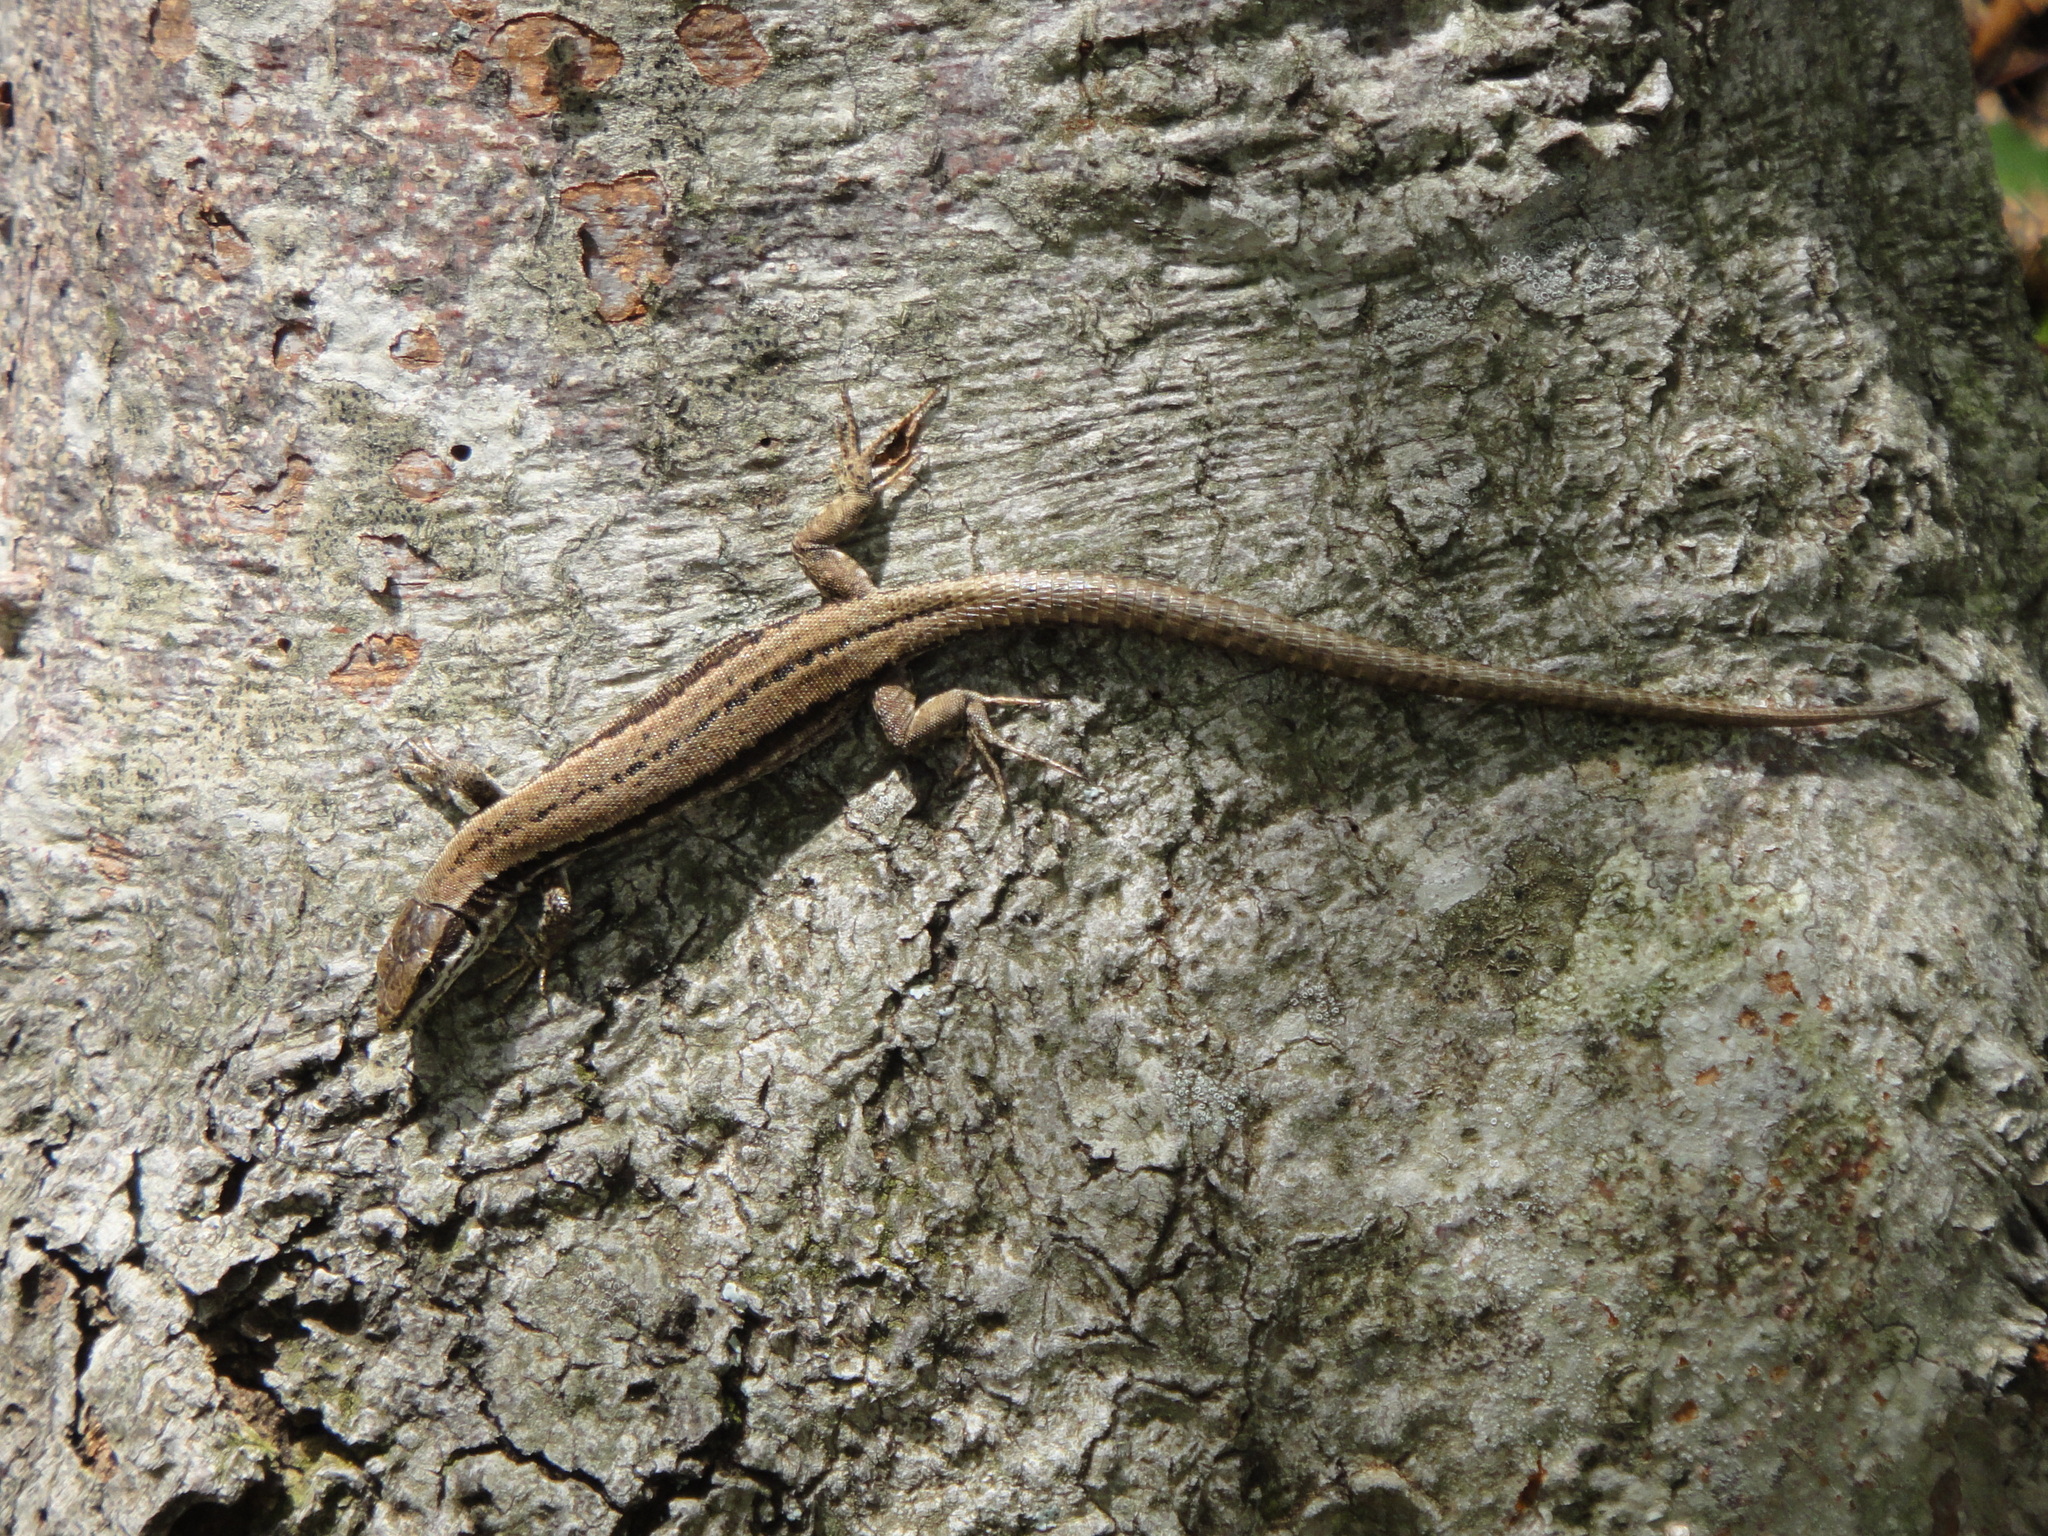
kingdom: Animalia
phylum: Chordata
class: Squamata
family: Lacertidae
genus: Podarcis
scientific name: Podarcis muralis
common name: Common wall lizard
